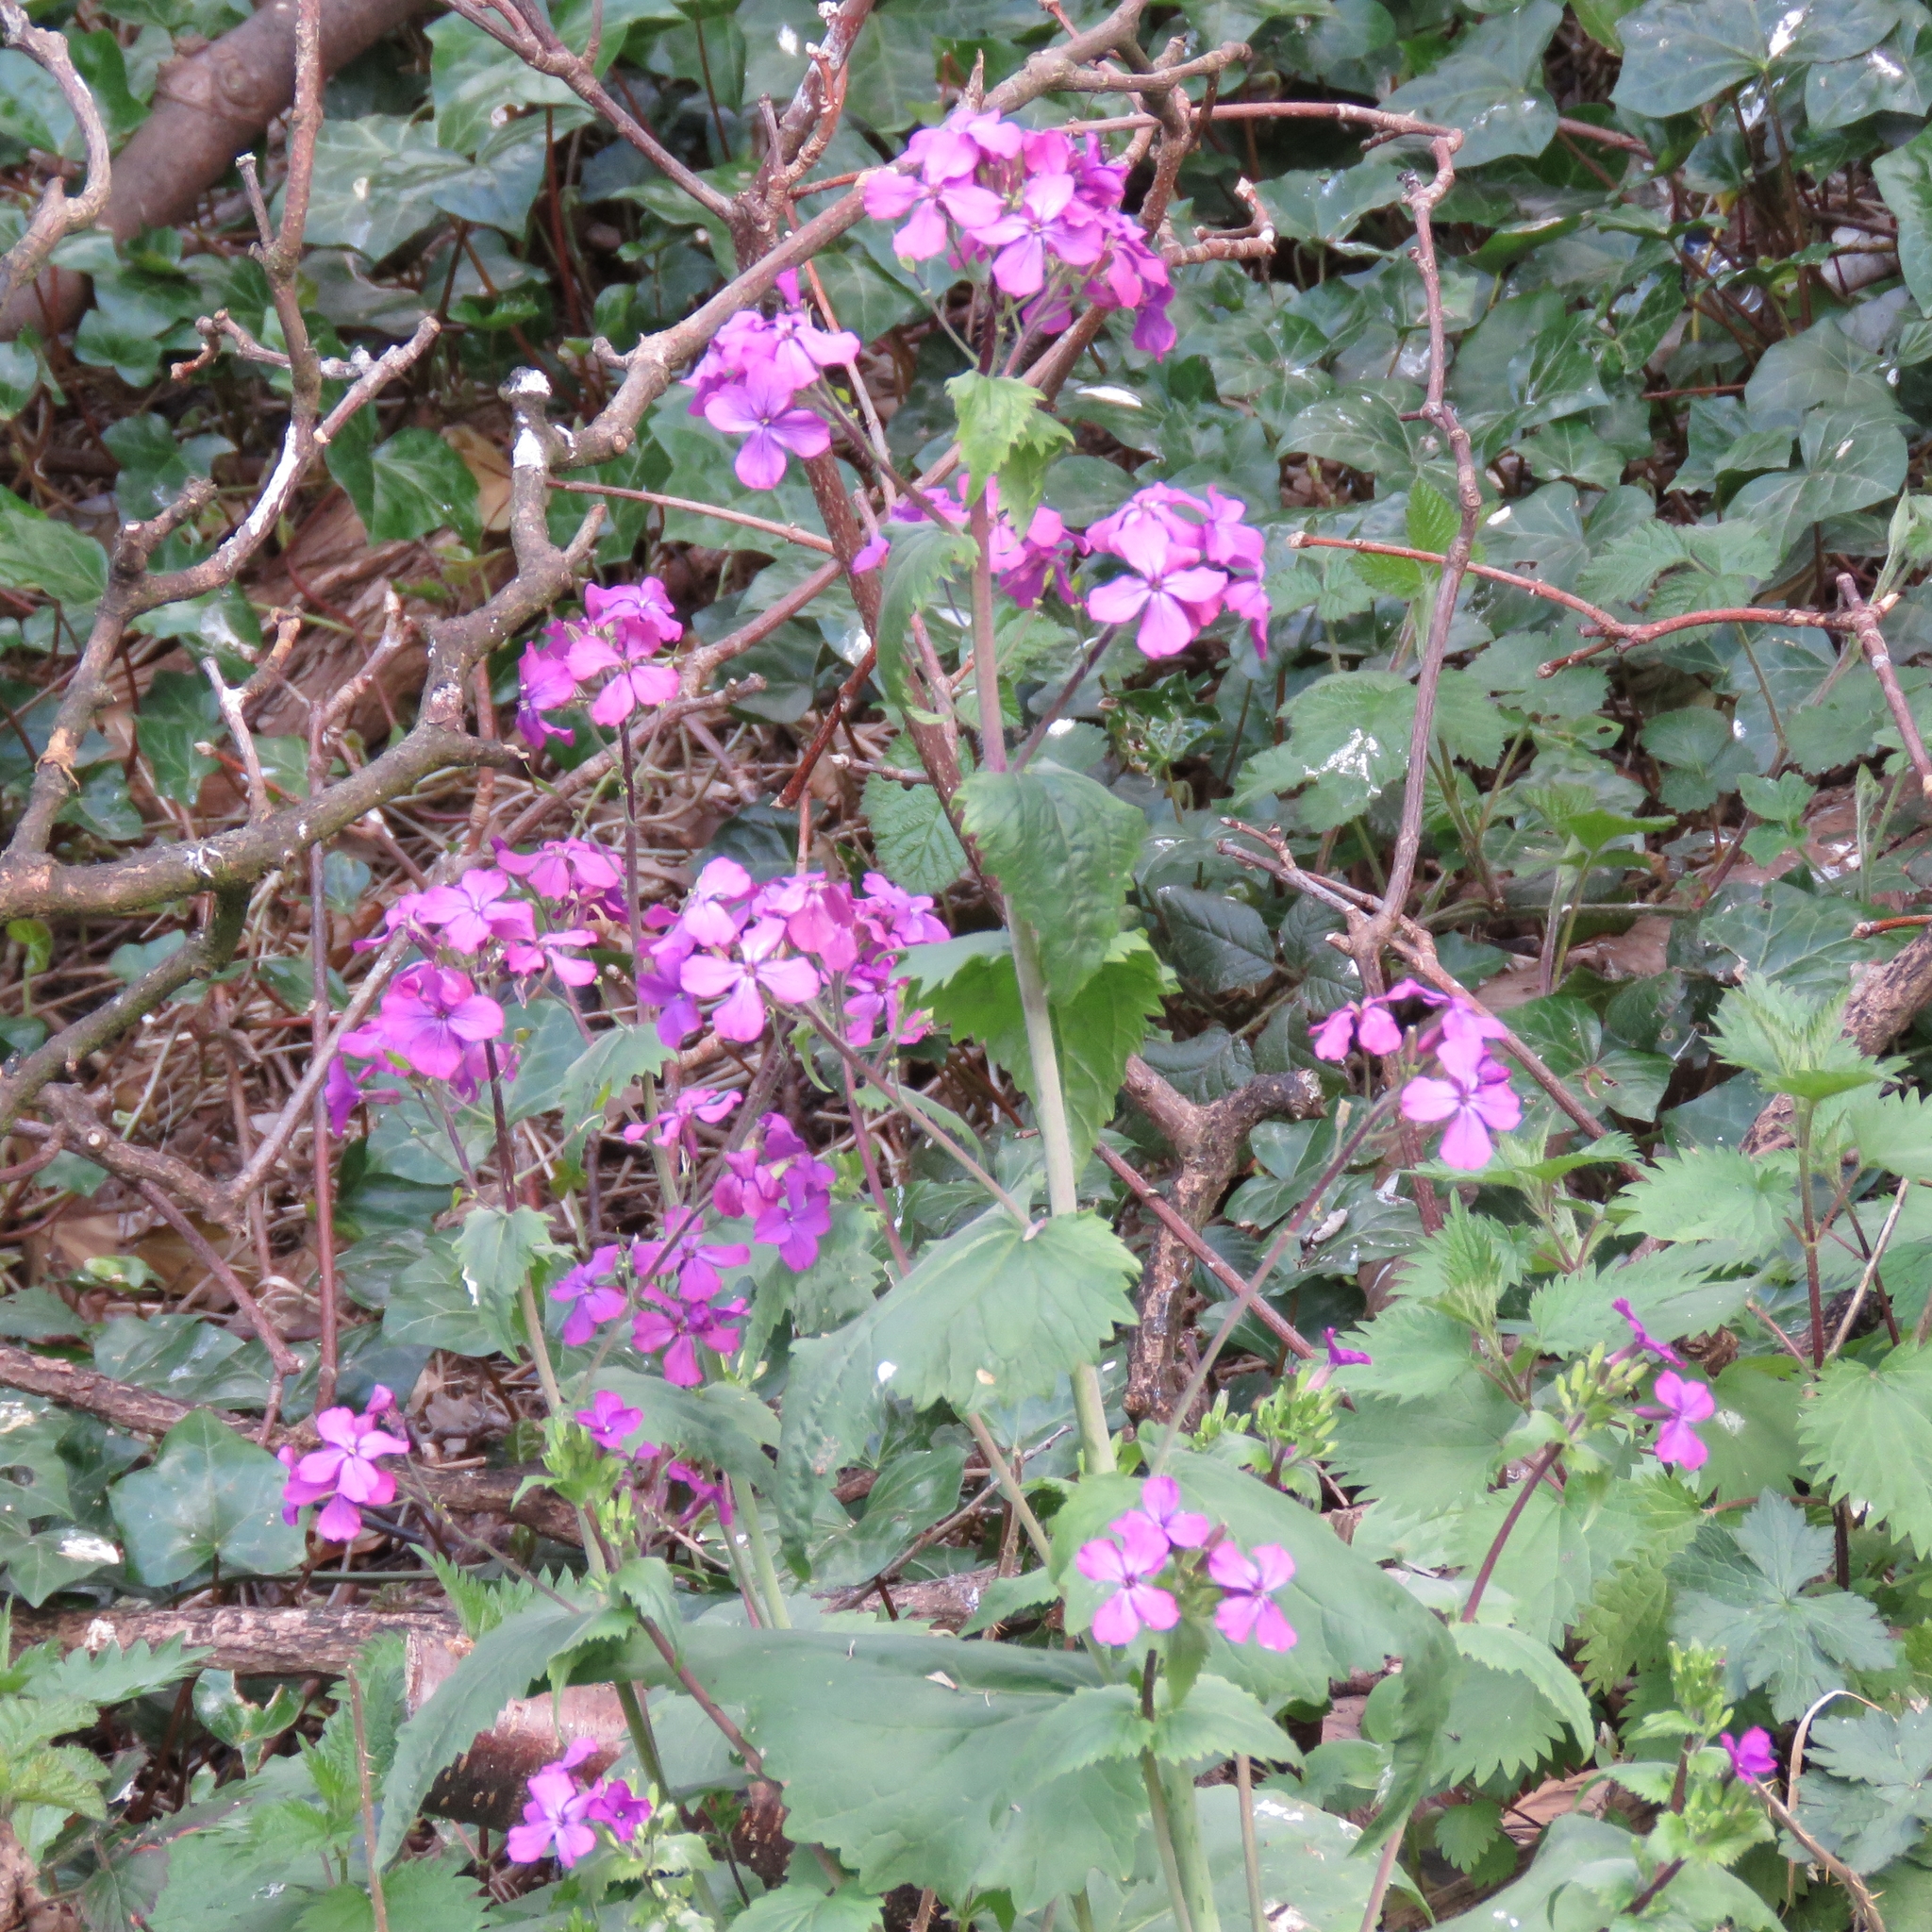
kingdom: Plantae
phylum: Tracheophyta
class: Magnoliopsida
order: Brassicales
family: Brassicaceae
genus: Lunaria
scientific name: Lunaria annua
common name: Honesty
